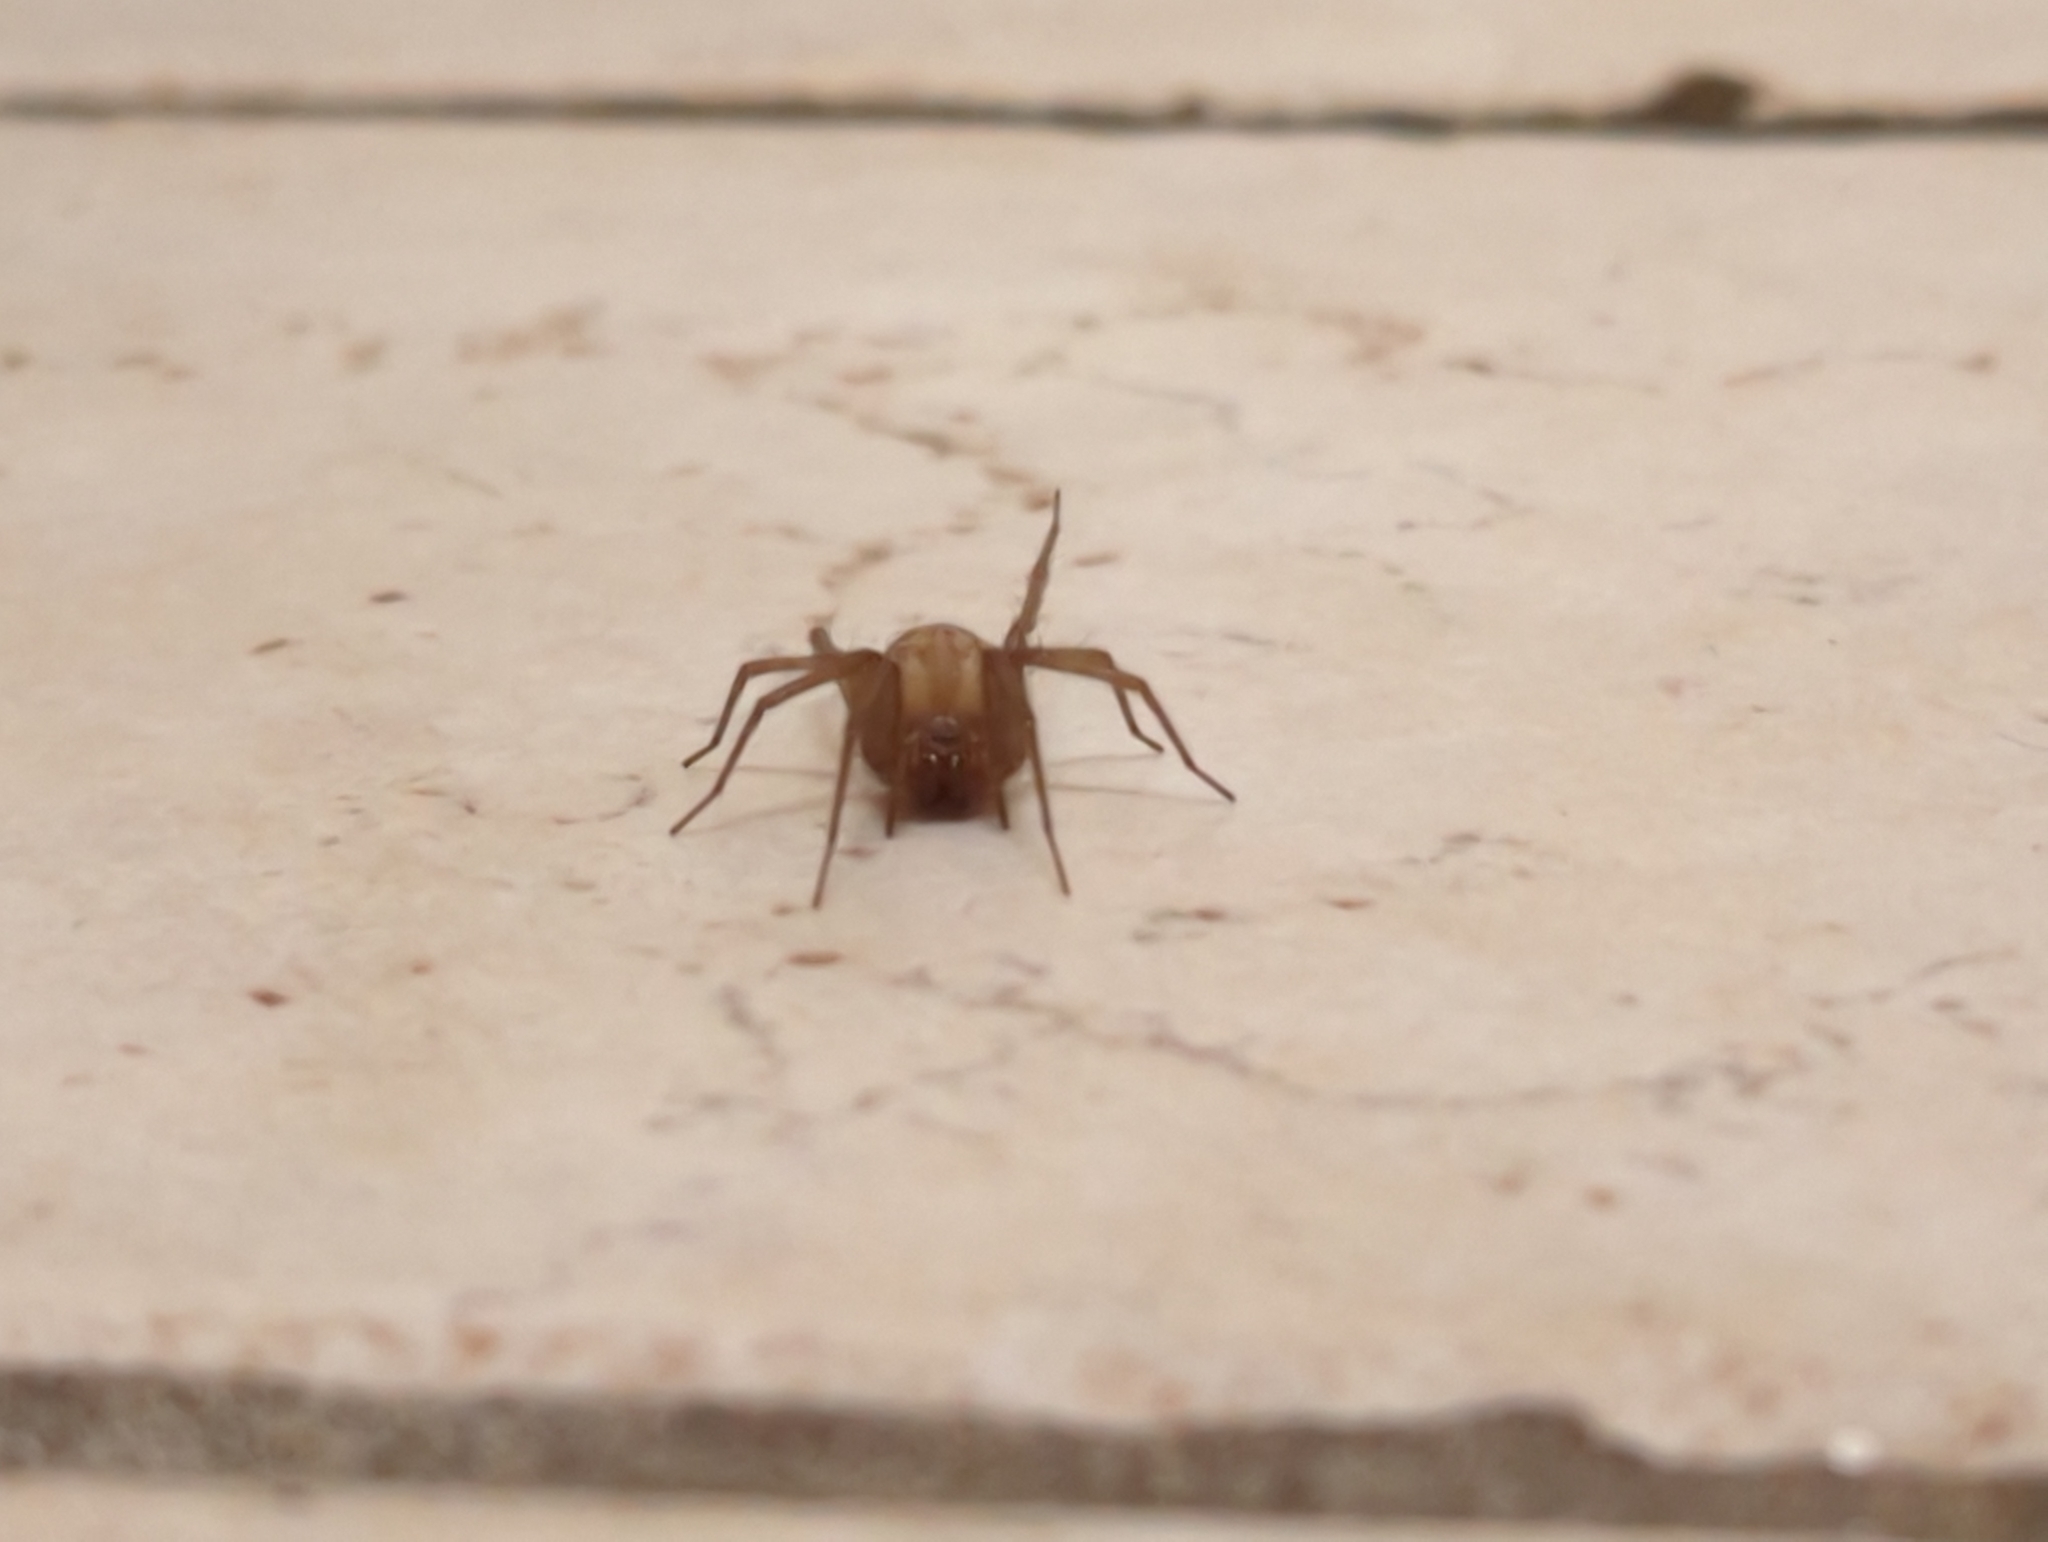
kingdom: Animalia
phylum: Arthropoda
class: Arachnida
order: Araneae
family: Agelenidae
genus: Tegenaria
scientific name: Tegenaria domestica
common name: Barn funnel weaver
